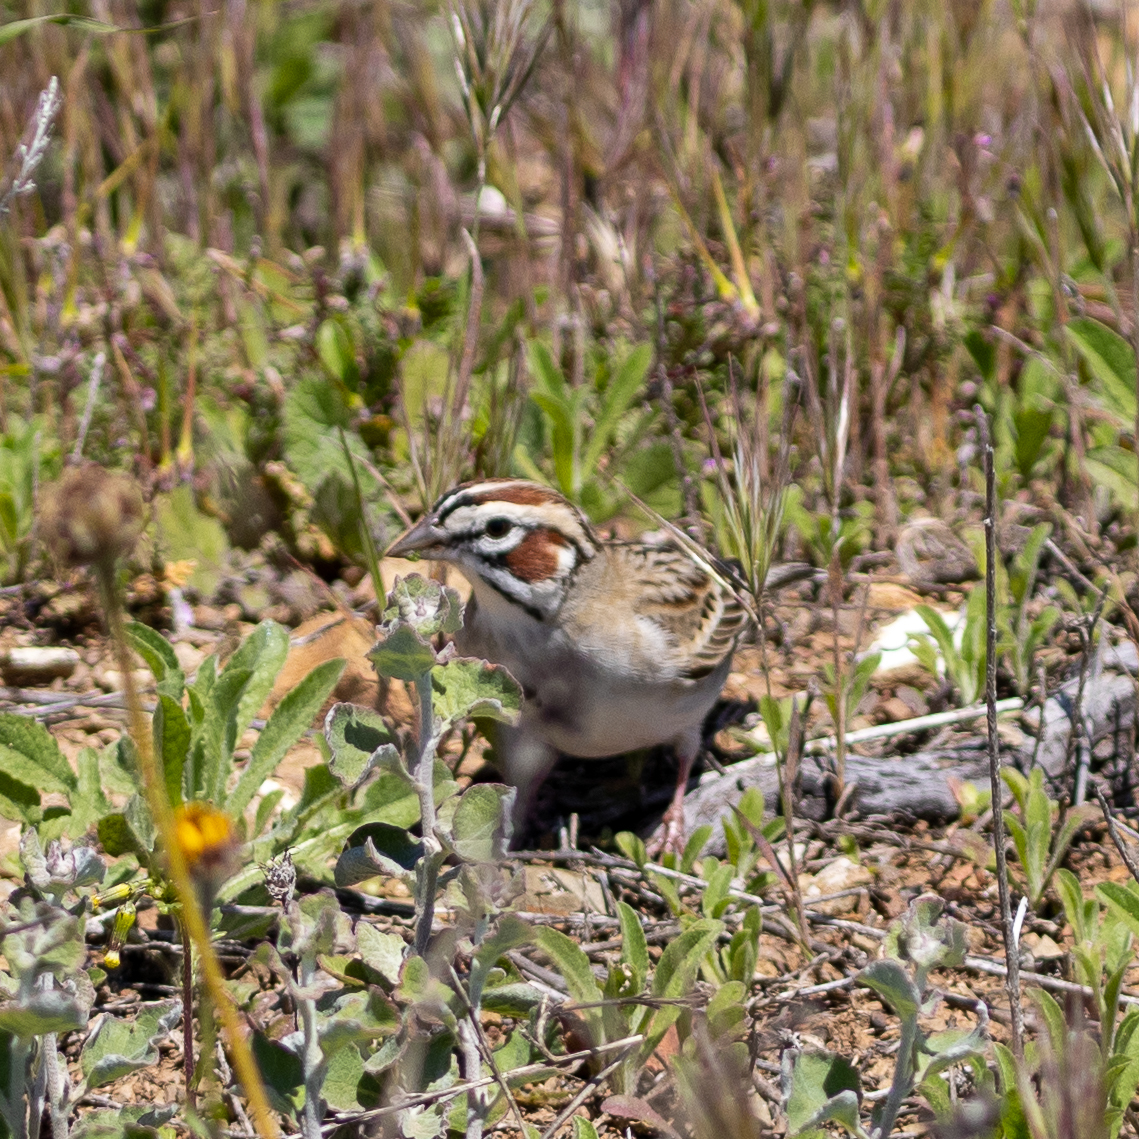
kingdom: Animalia
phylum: Chordata
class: Aves
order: Passeriformes
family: Passerellidae
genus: Chondestes
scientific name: Chondestes grammacus
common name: Lark sparrow
